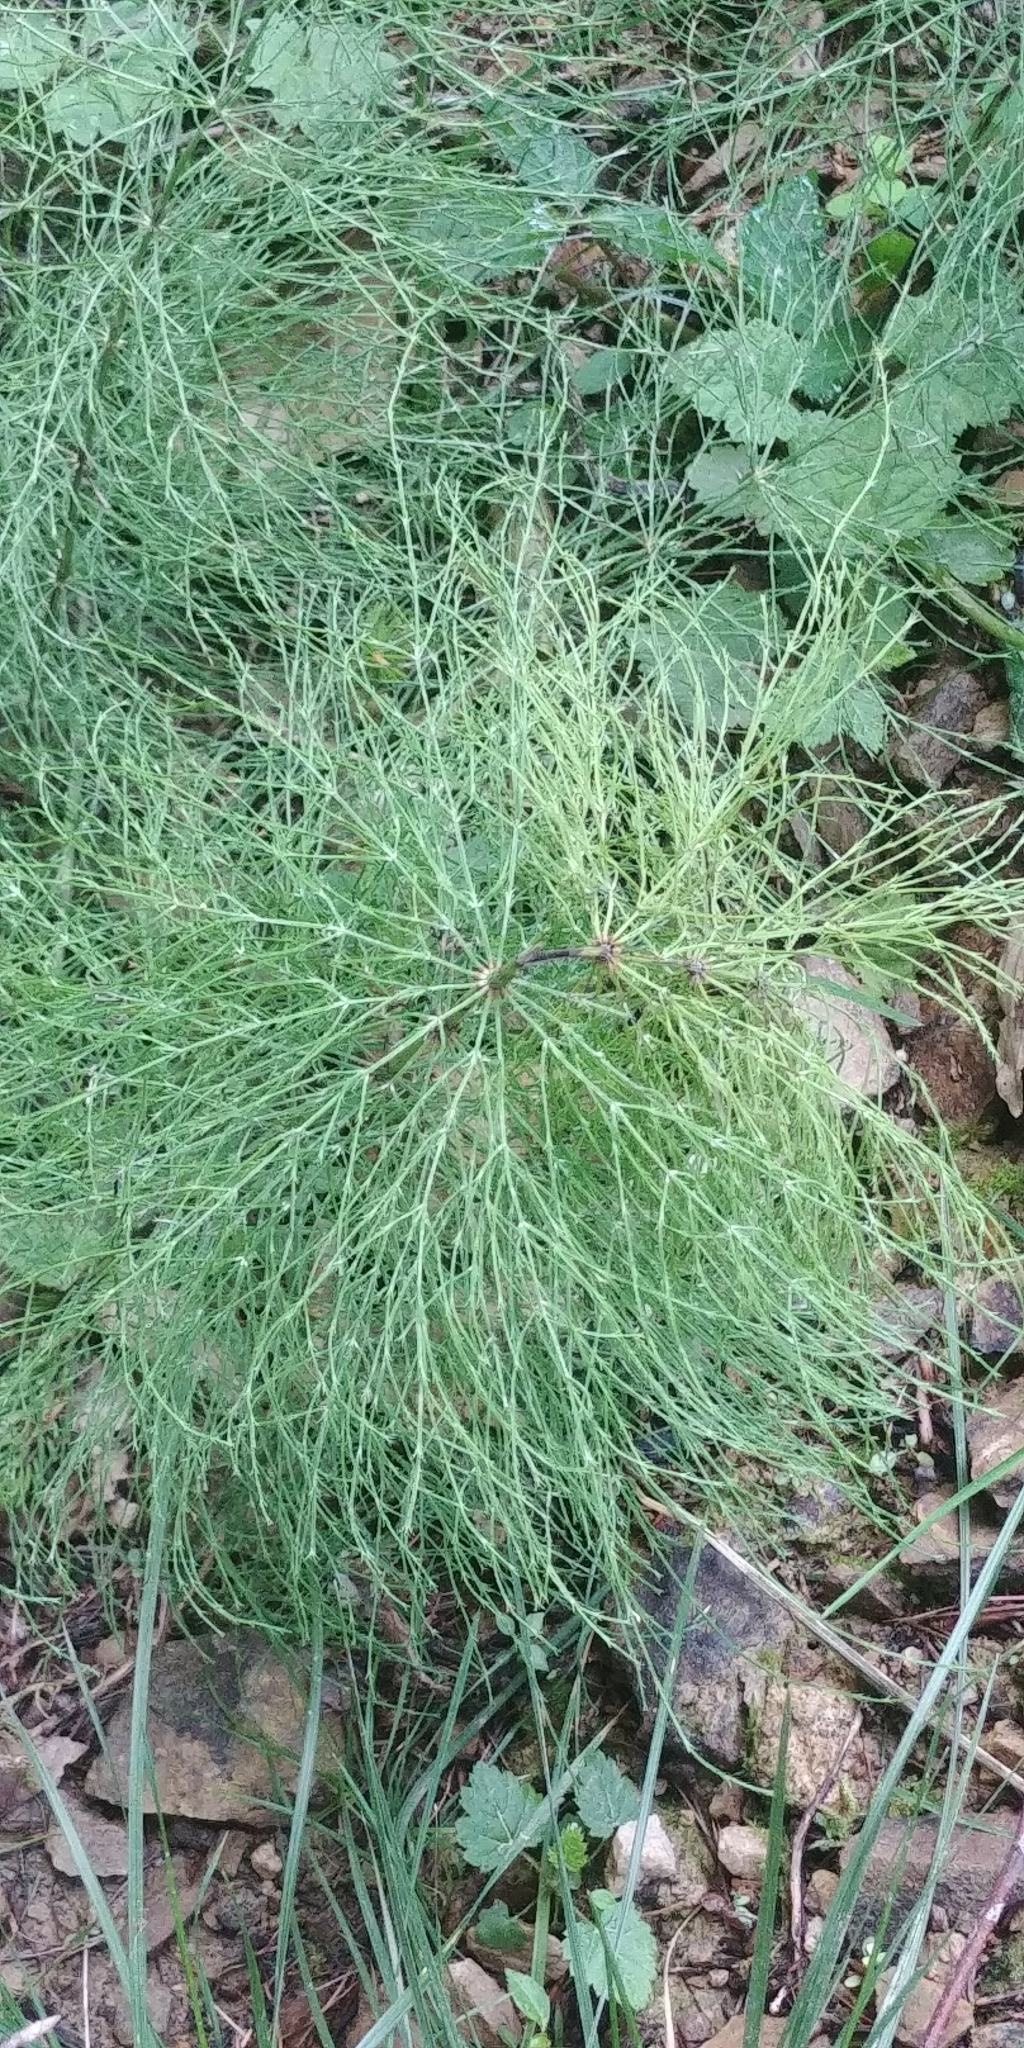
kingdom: Plantae
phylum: Tracheophyta
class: Polypodiopsida
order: Equisetales
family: Equisetaceae
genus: Equisetum
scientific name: Equisetum sylvaticum
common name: Wood horsetail
